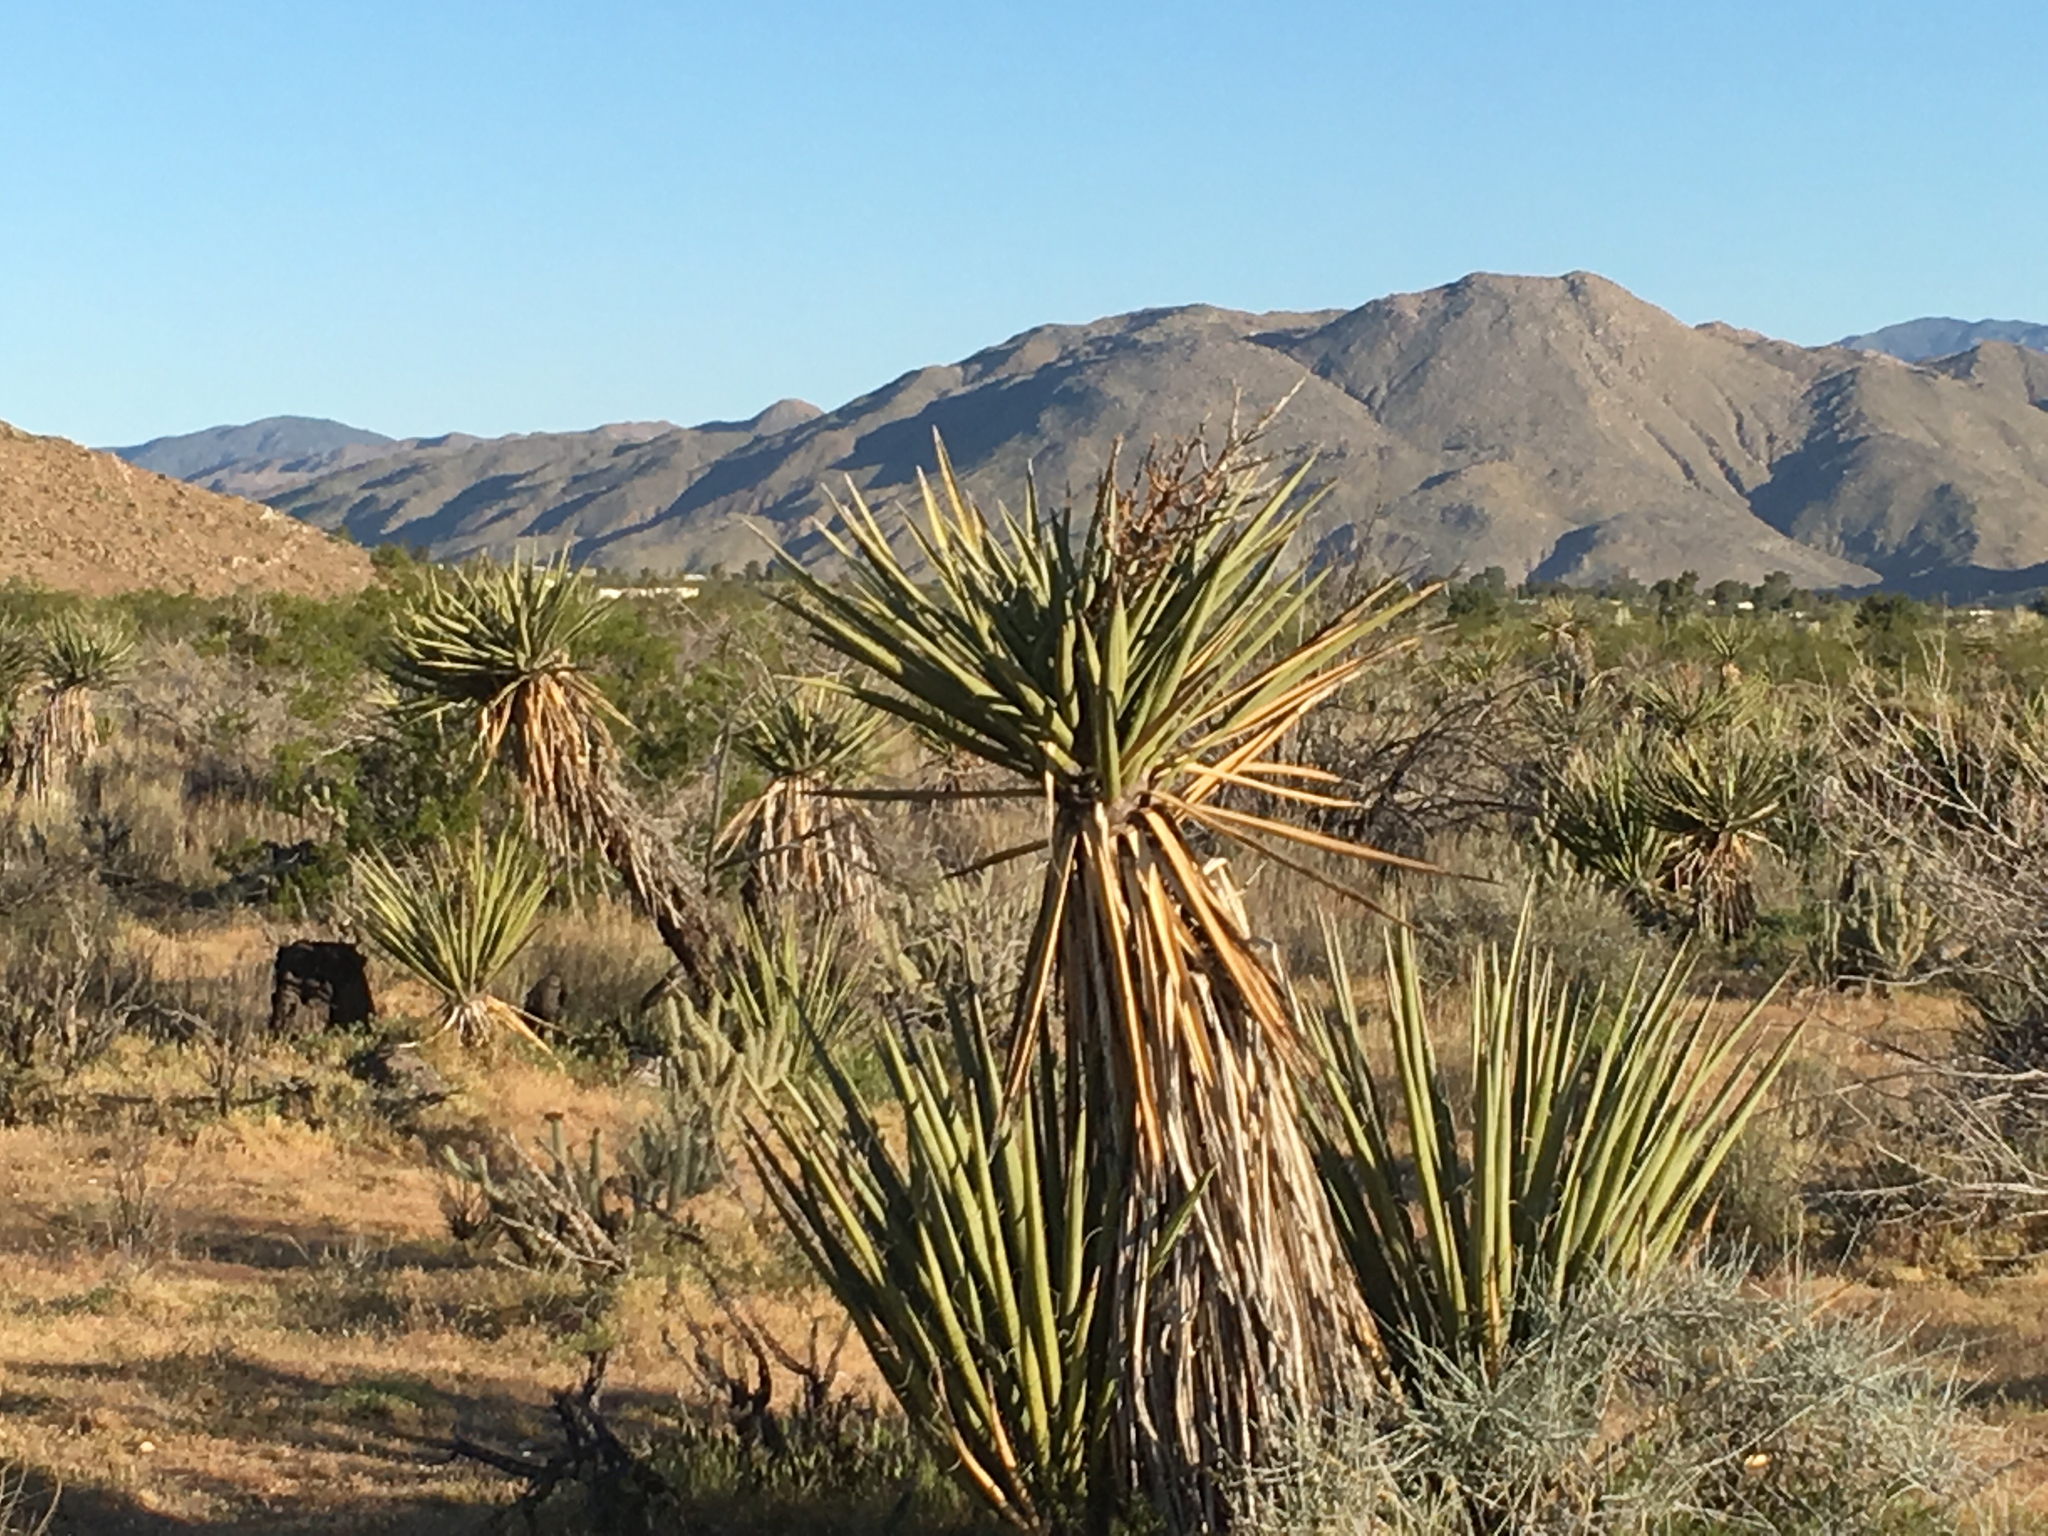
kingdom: Plantae
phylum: Tracheophyta
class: Liliopsida
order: Asparagales
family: Asparagaceae
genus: Yucca
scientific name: Yucca schidigera
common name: Mojave yucca
